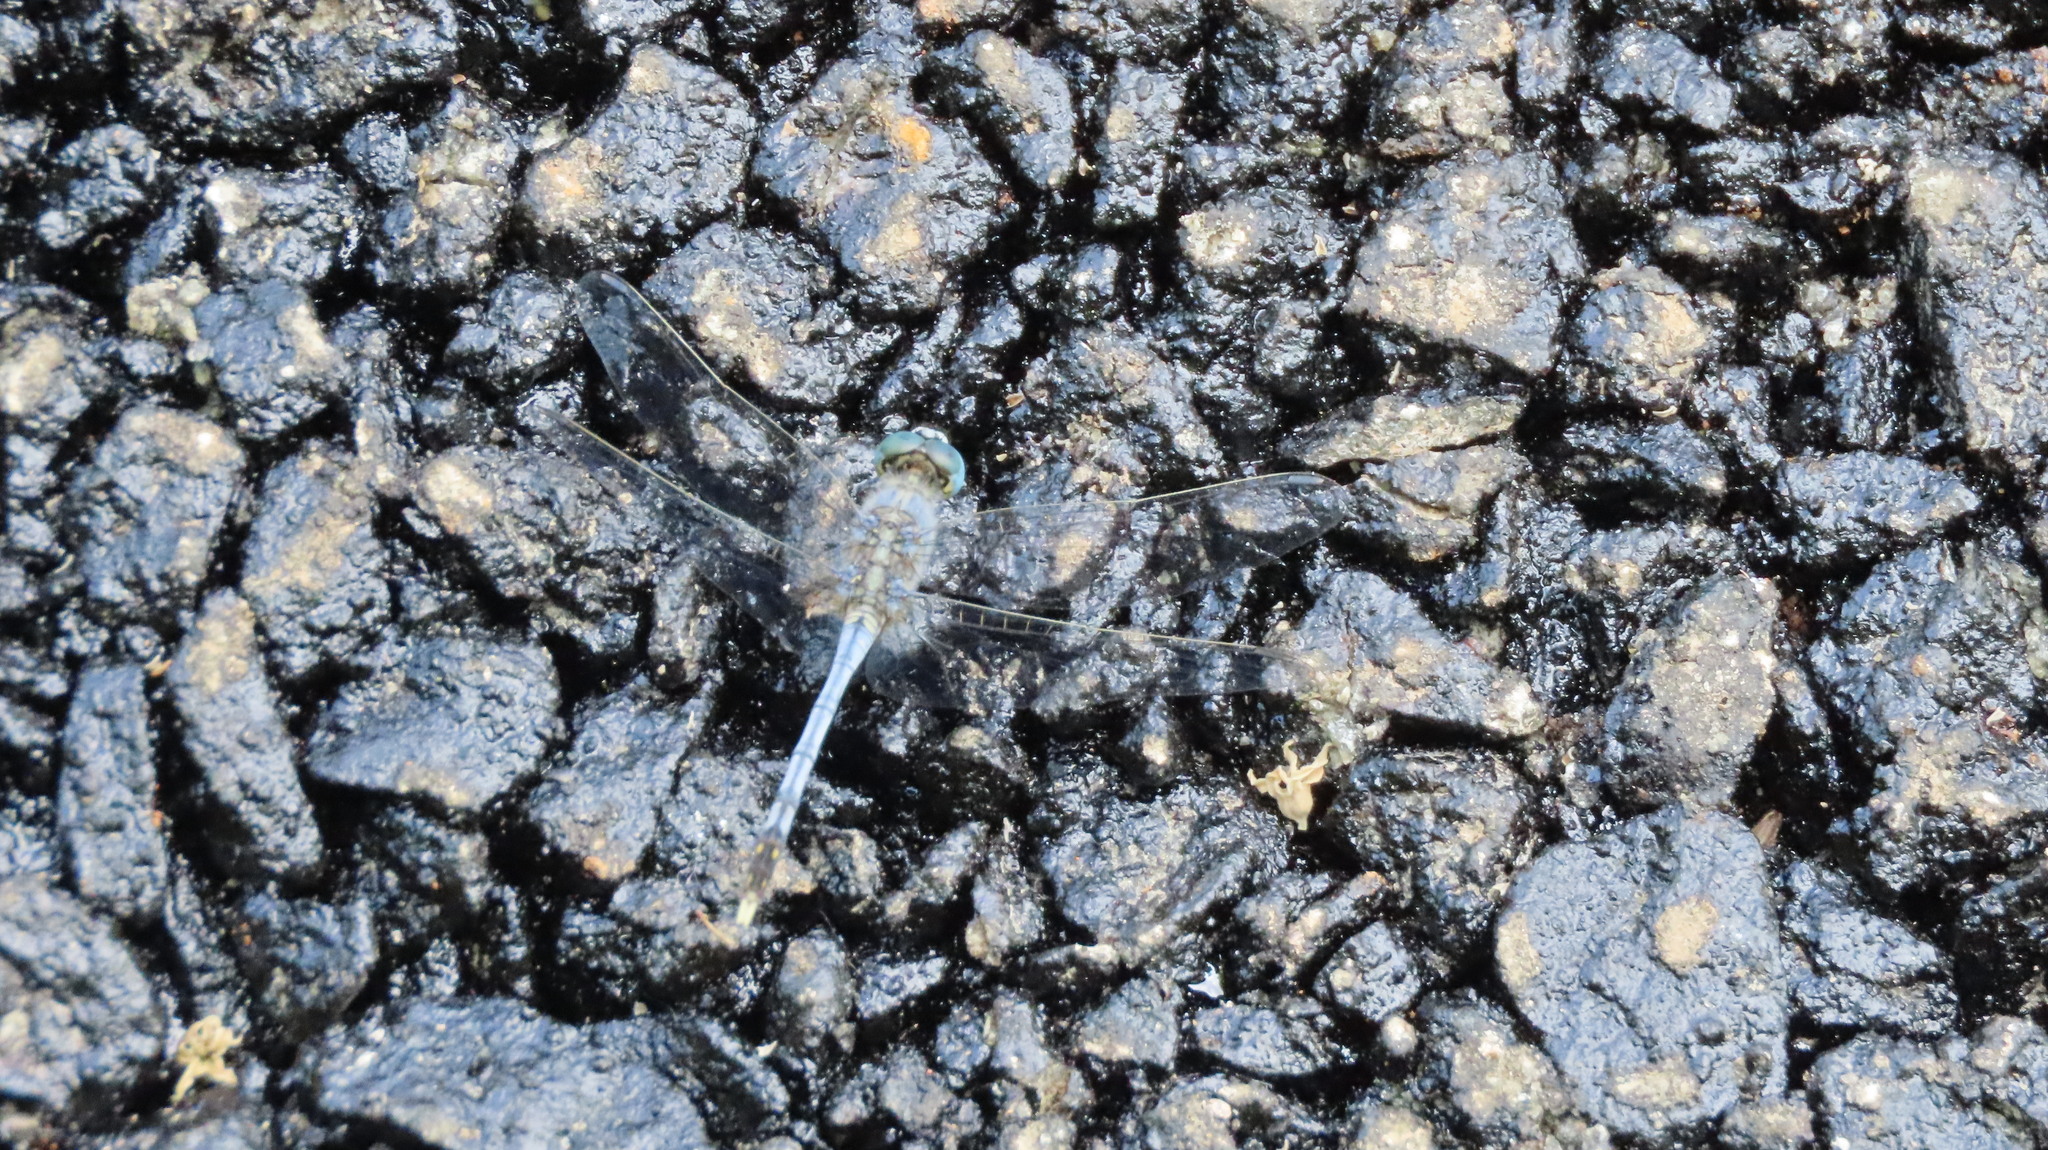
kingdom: Animalia
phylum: Arthropoda
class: Insecta
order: Odonata
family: Libellulidae
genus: Diplacodes
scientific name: Diplacodes trivialis
